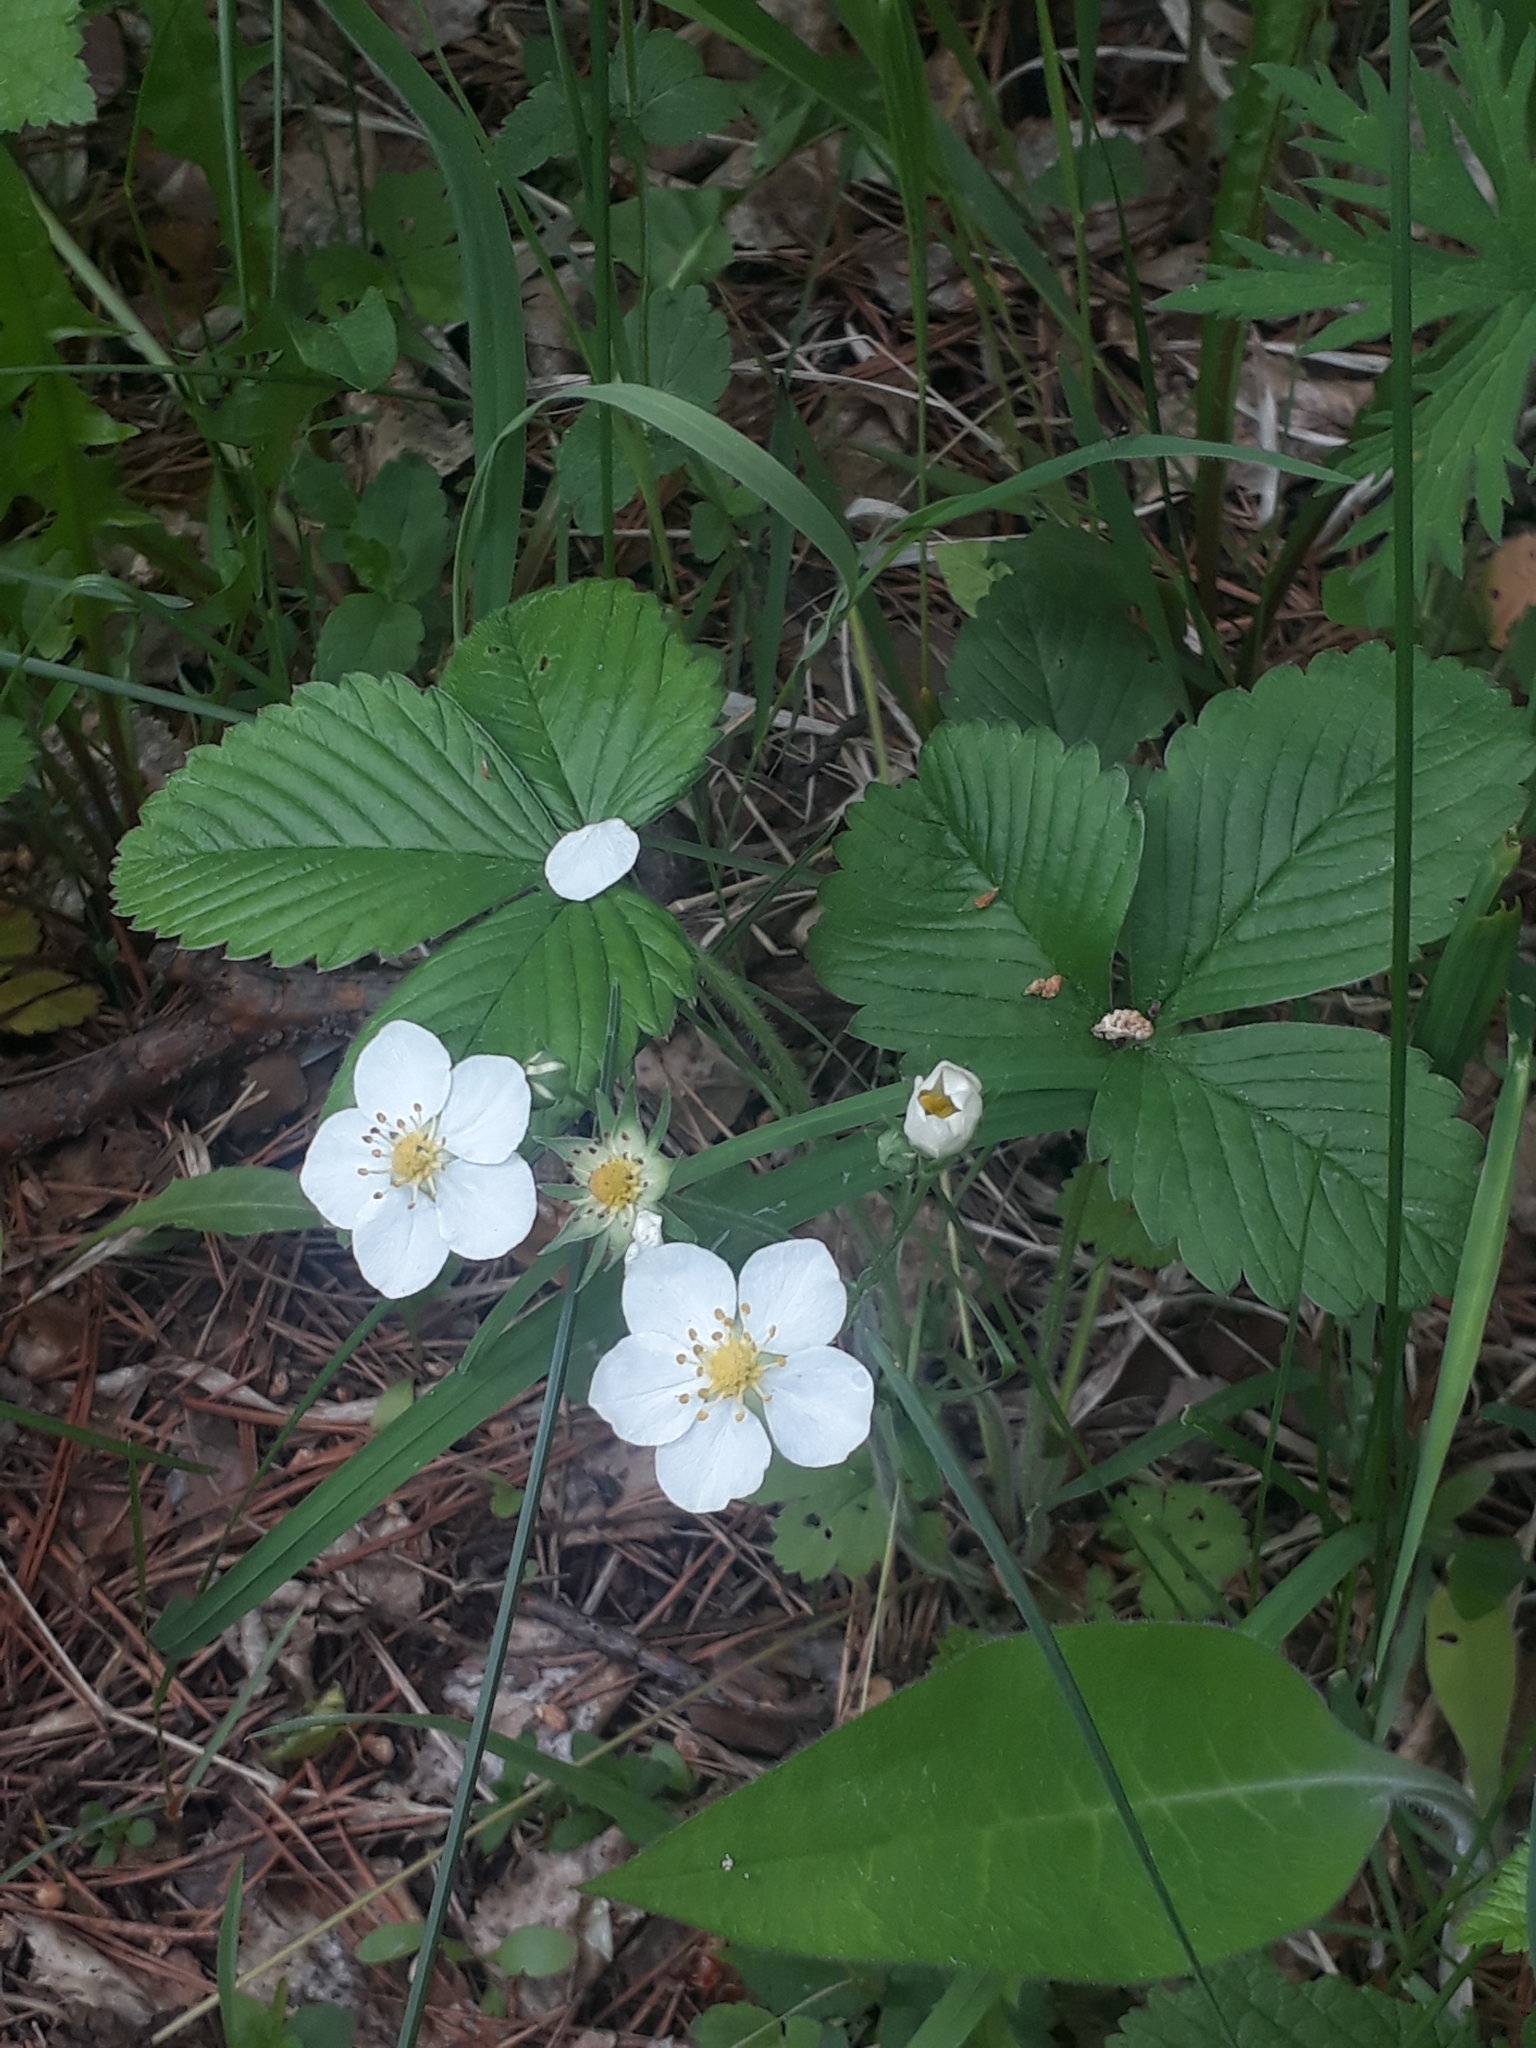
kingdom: Plantae
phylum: Tracheophyta
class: Magnoliopsida
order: Rosales
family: Rosaceae
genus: Fragaria
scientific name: Fragaria viridis
